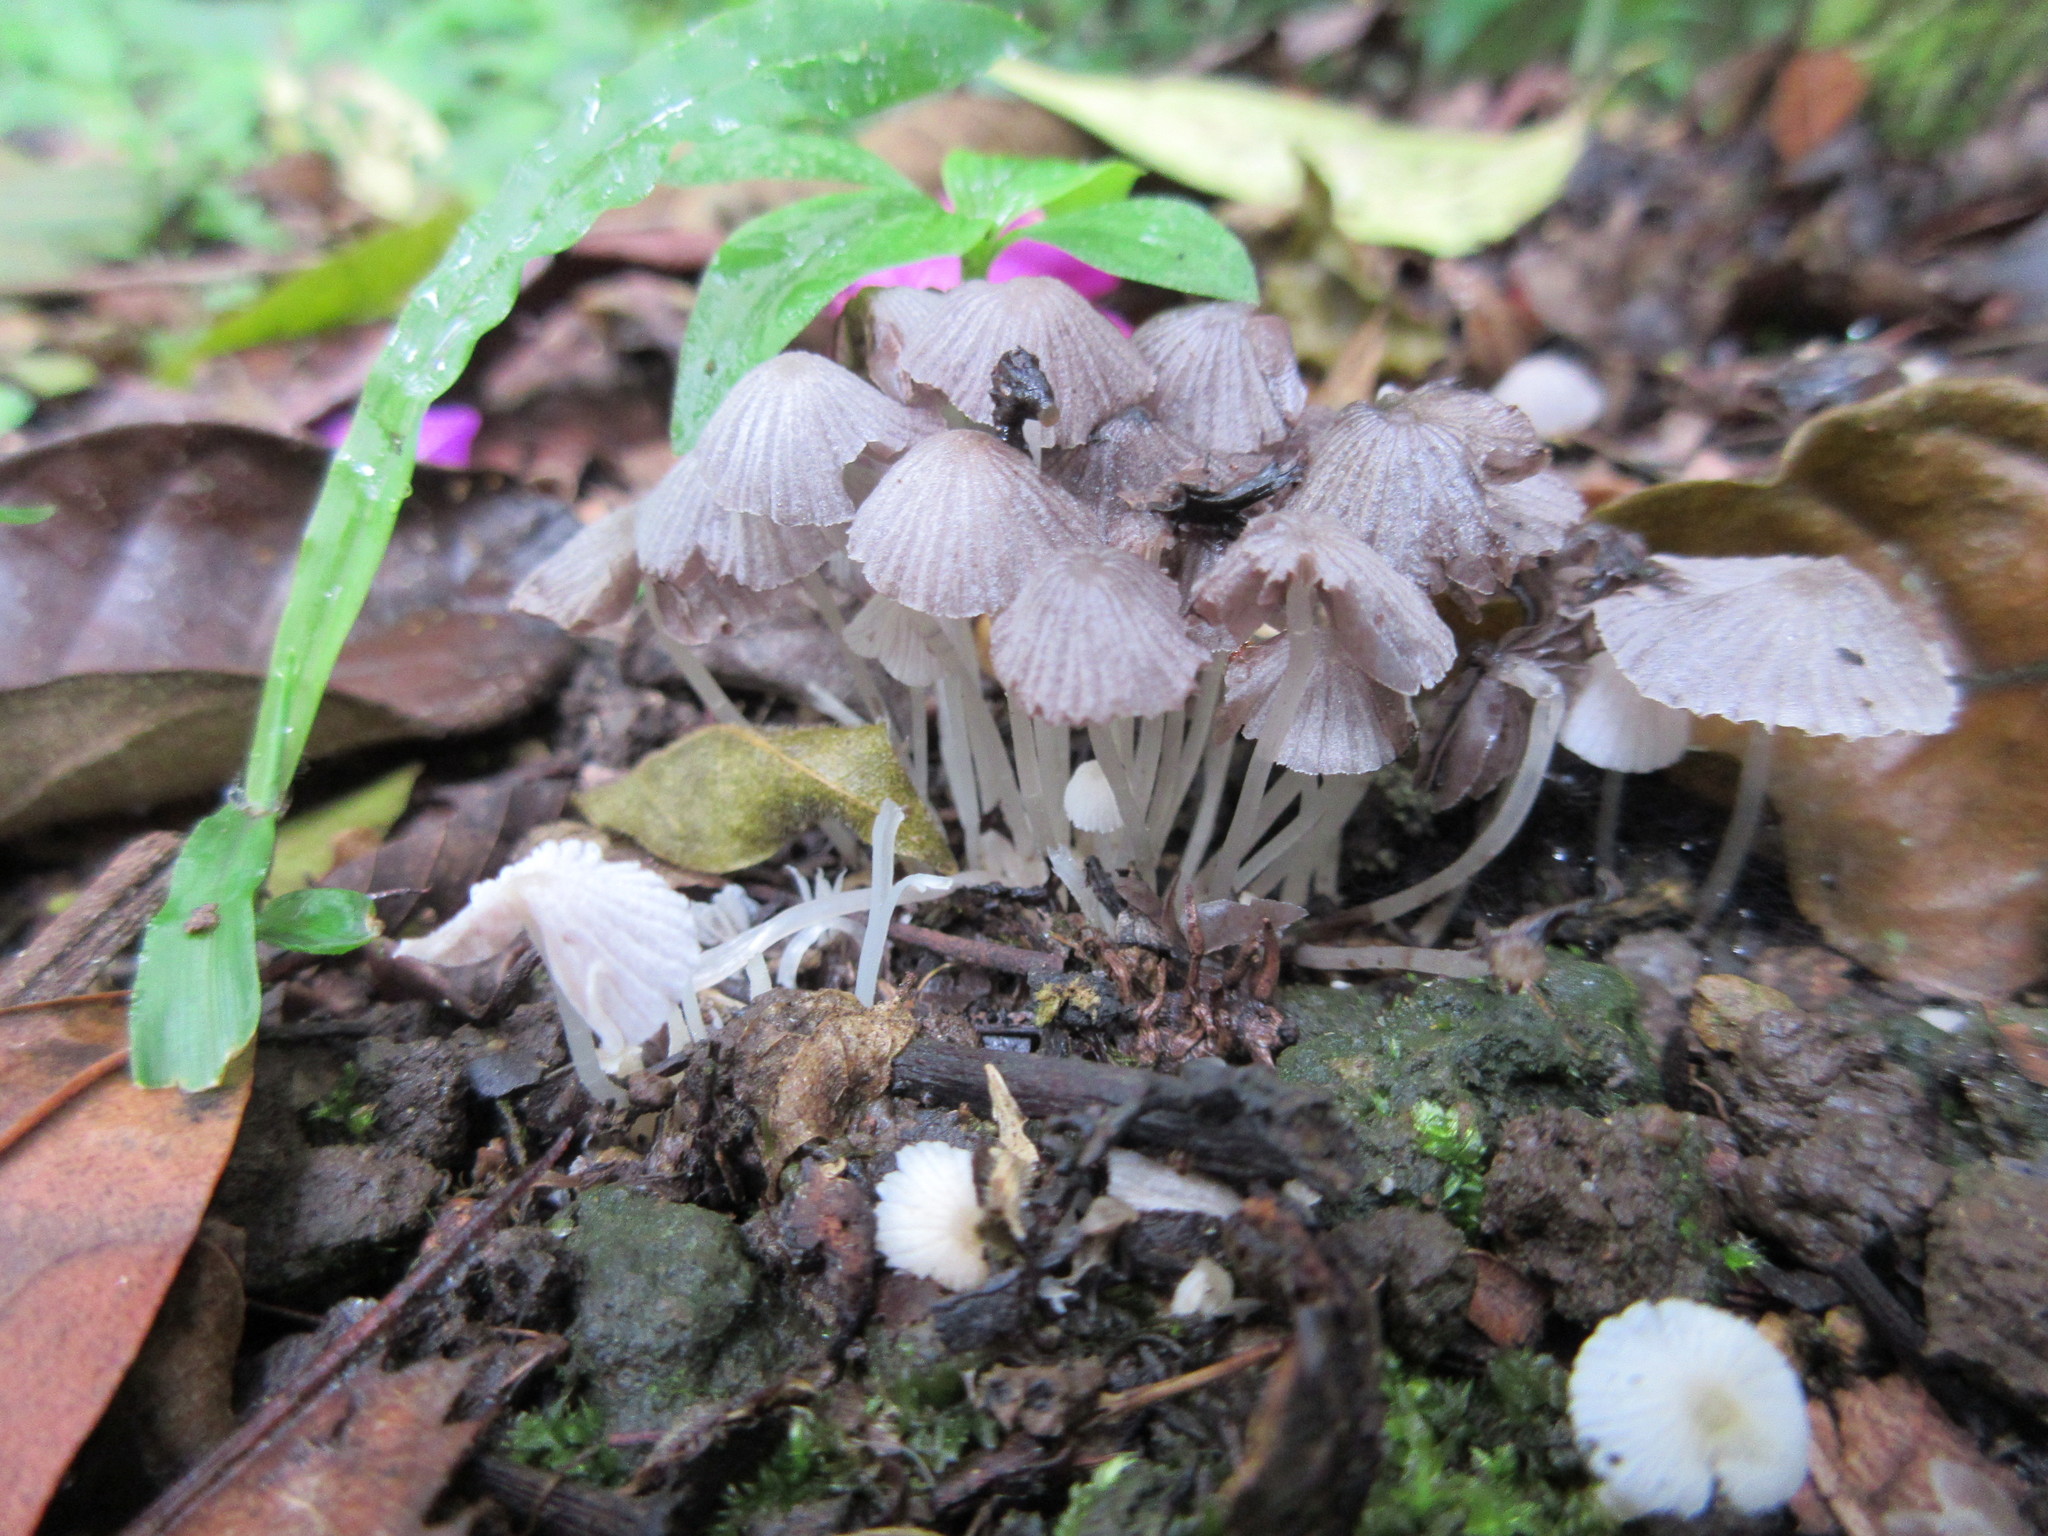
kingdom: Fungi
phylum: Basidiomycota
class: Agaricomycetes
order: Agaricales
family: Psathyrellaceae
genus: Coprinellus
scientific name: Coprinellus disseminatus
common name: Fairies' bonnets
